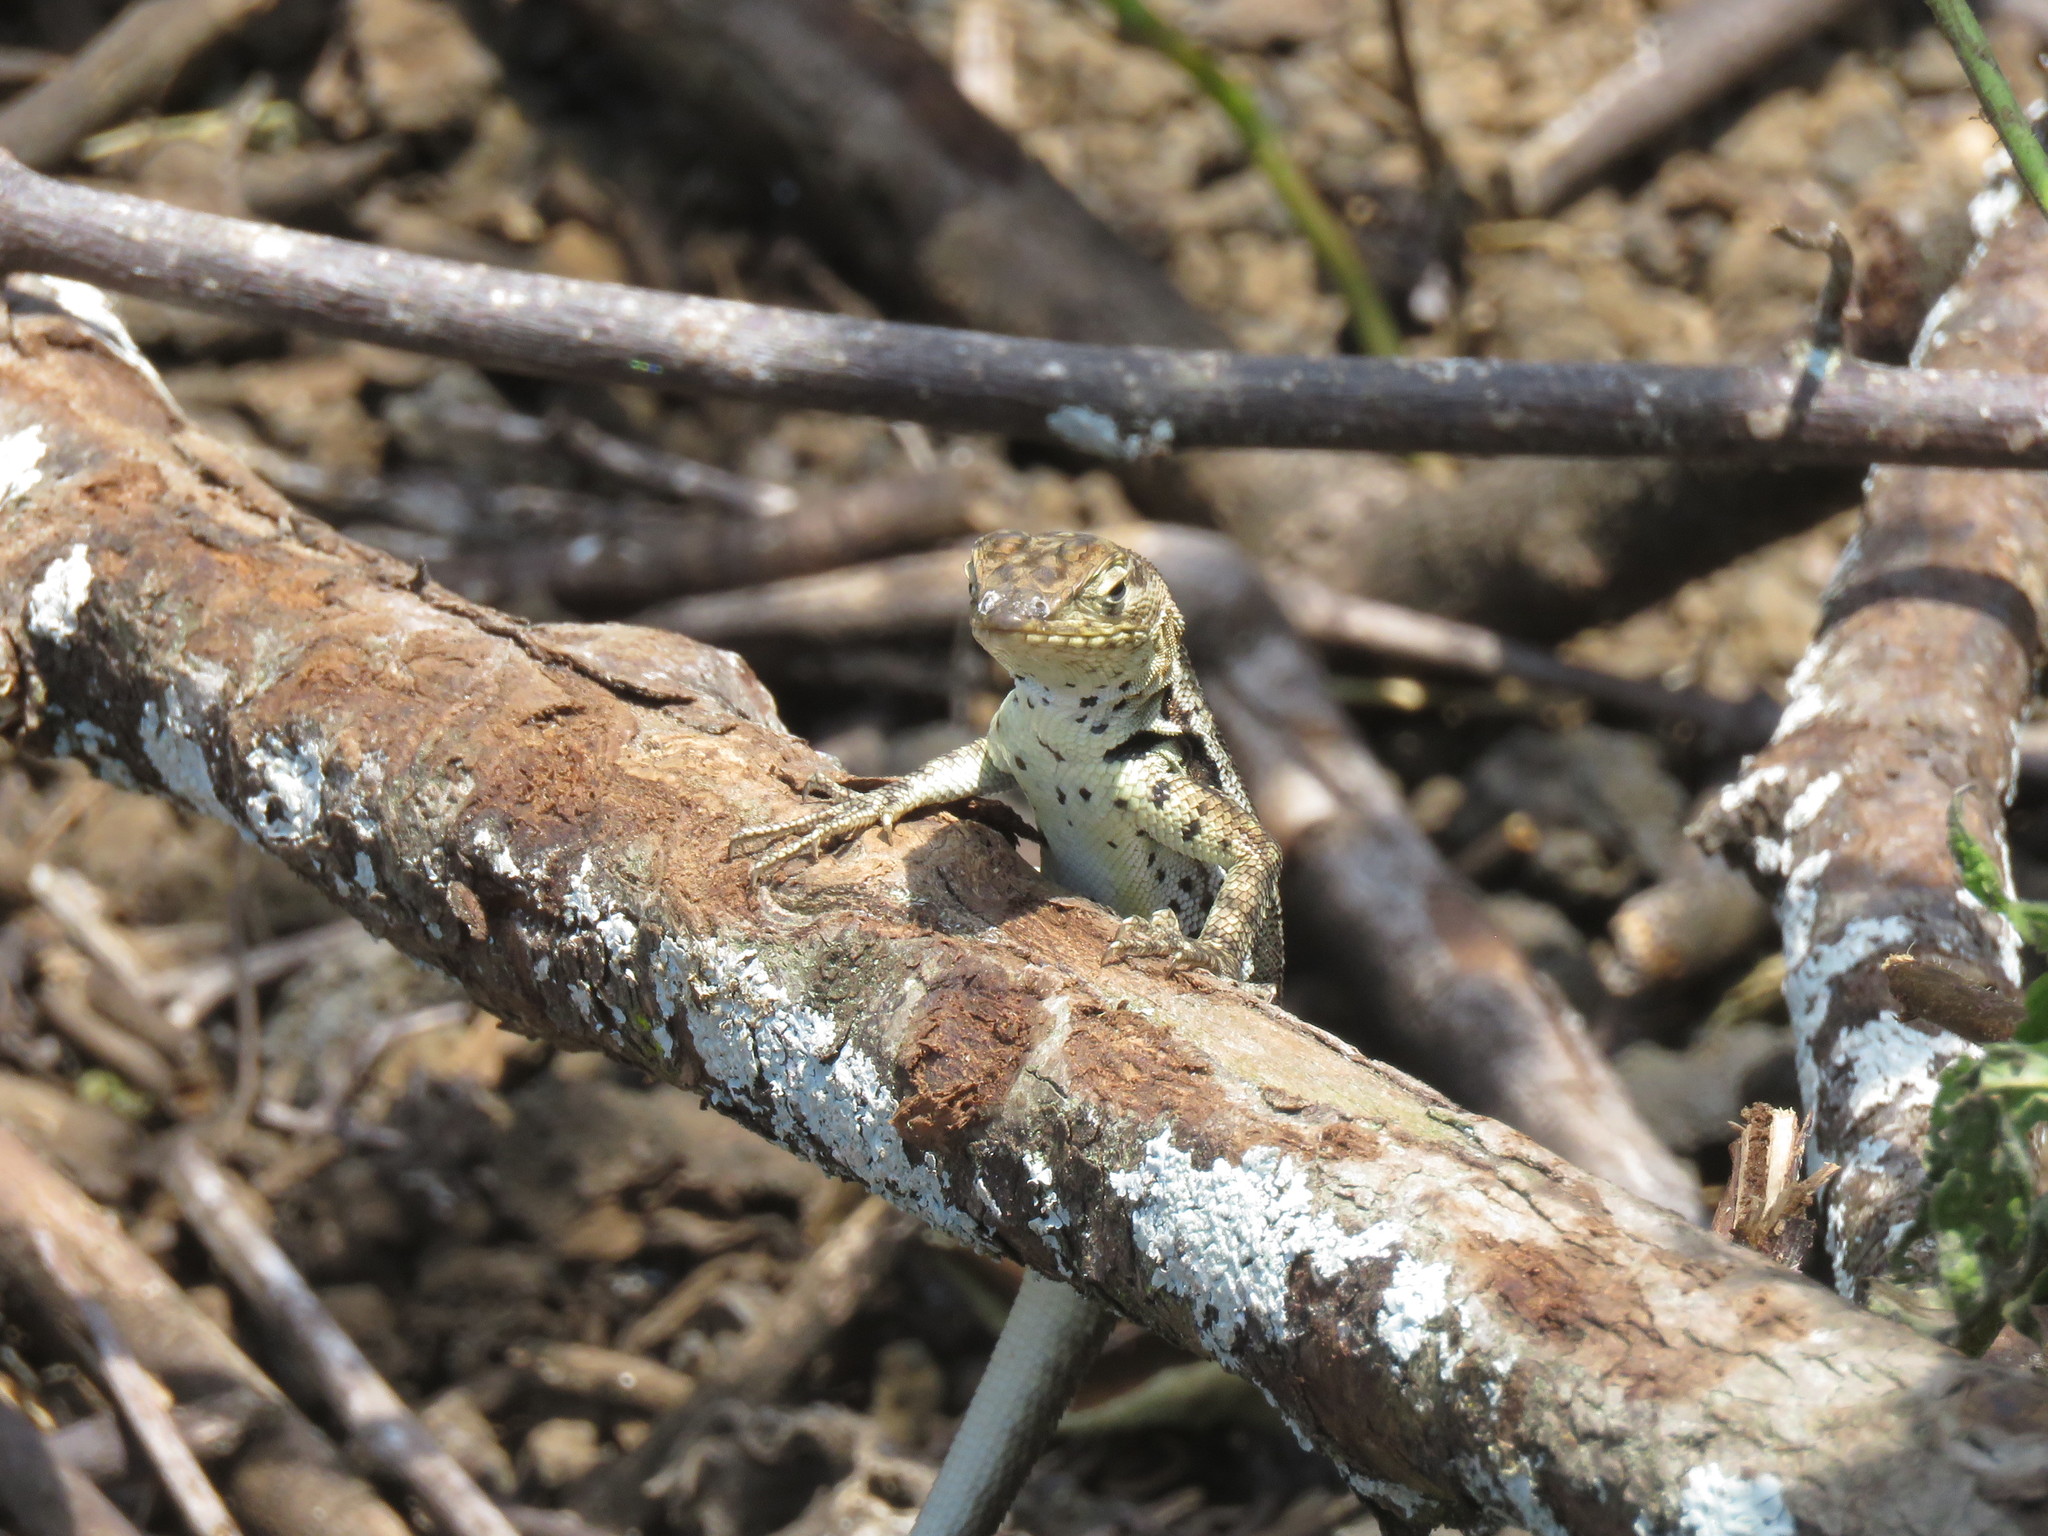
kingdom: Animalia
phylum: Chordata
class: Squamata
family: Tropiduridae
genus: Microlophus
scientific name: Microlophus albemarlensis
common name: Galapagos lava lizard
